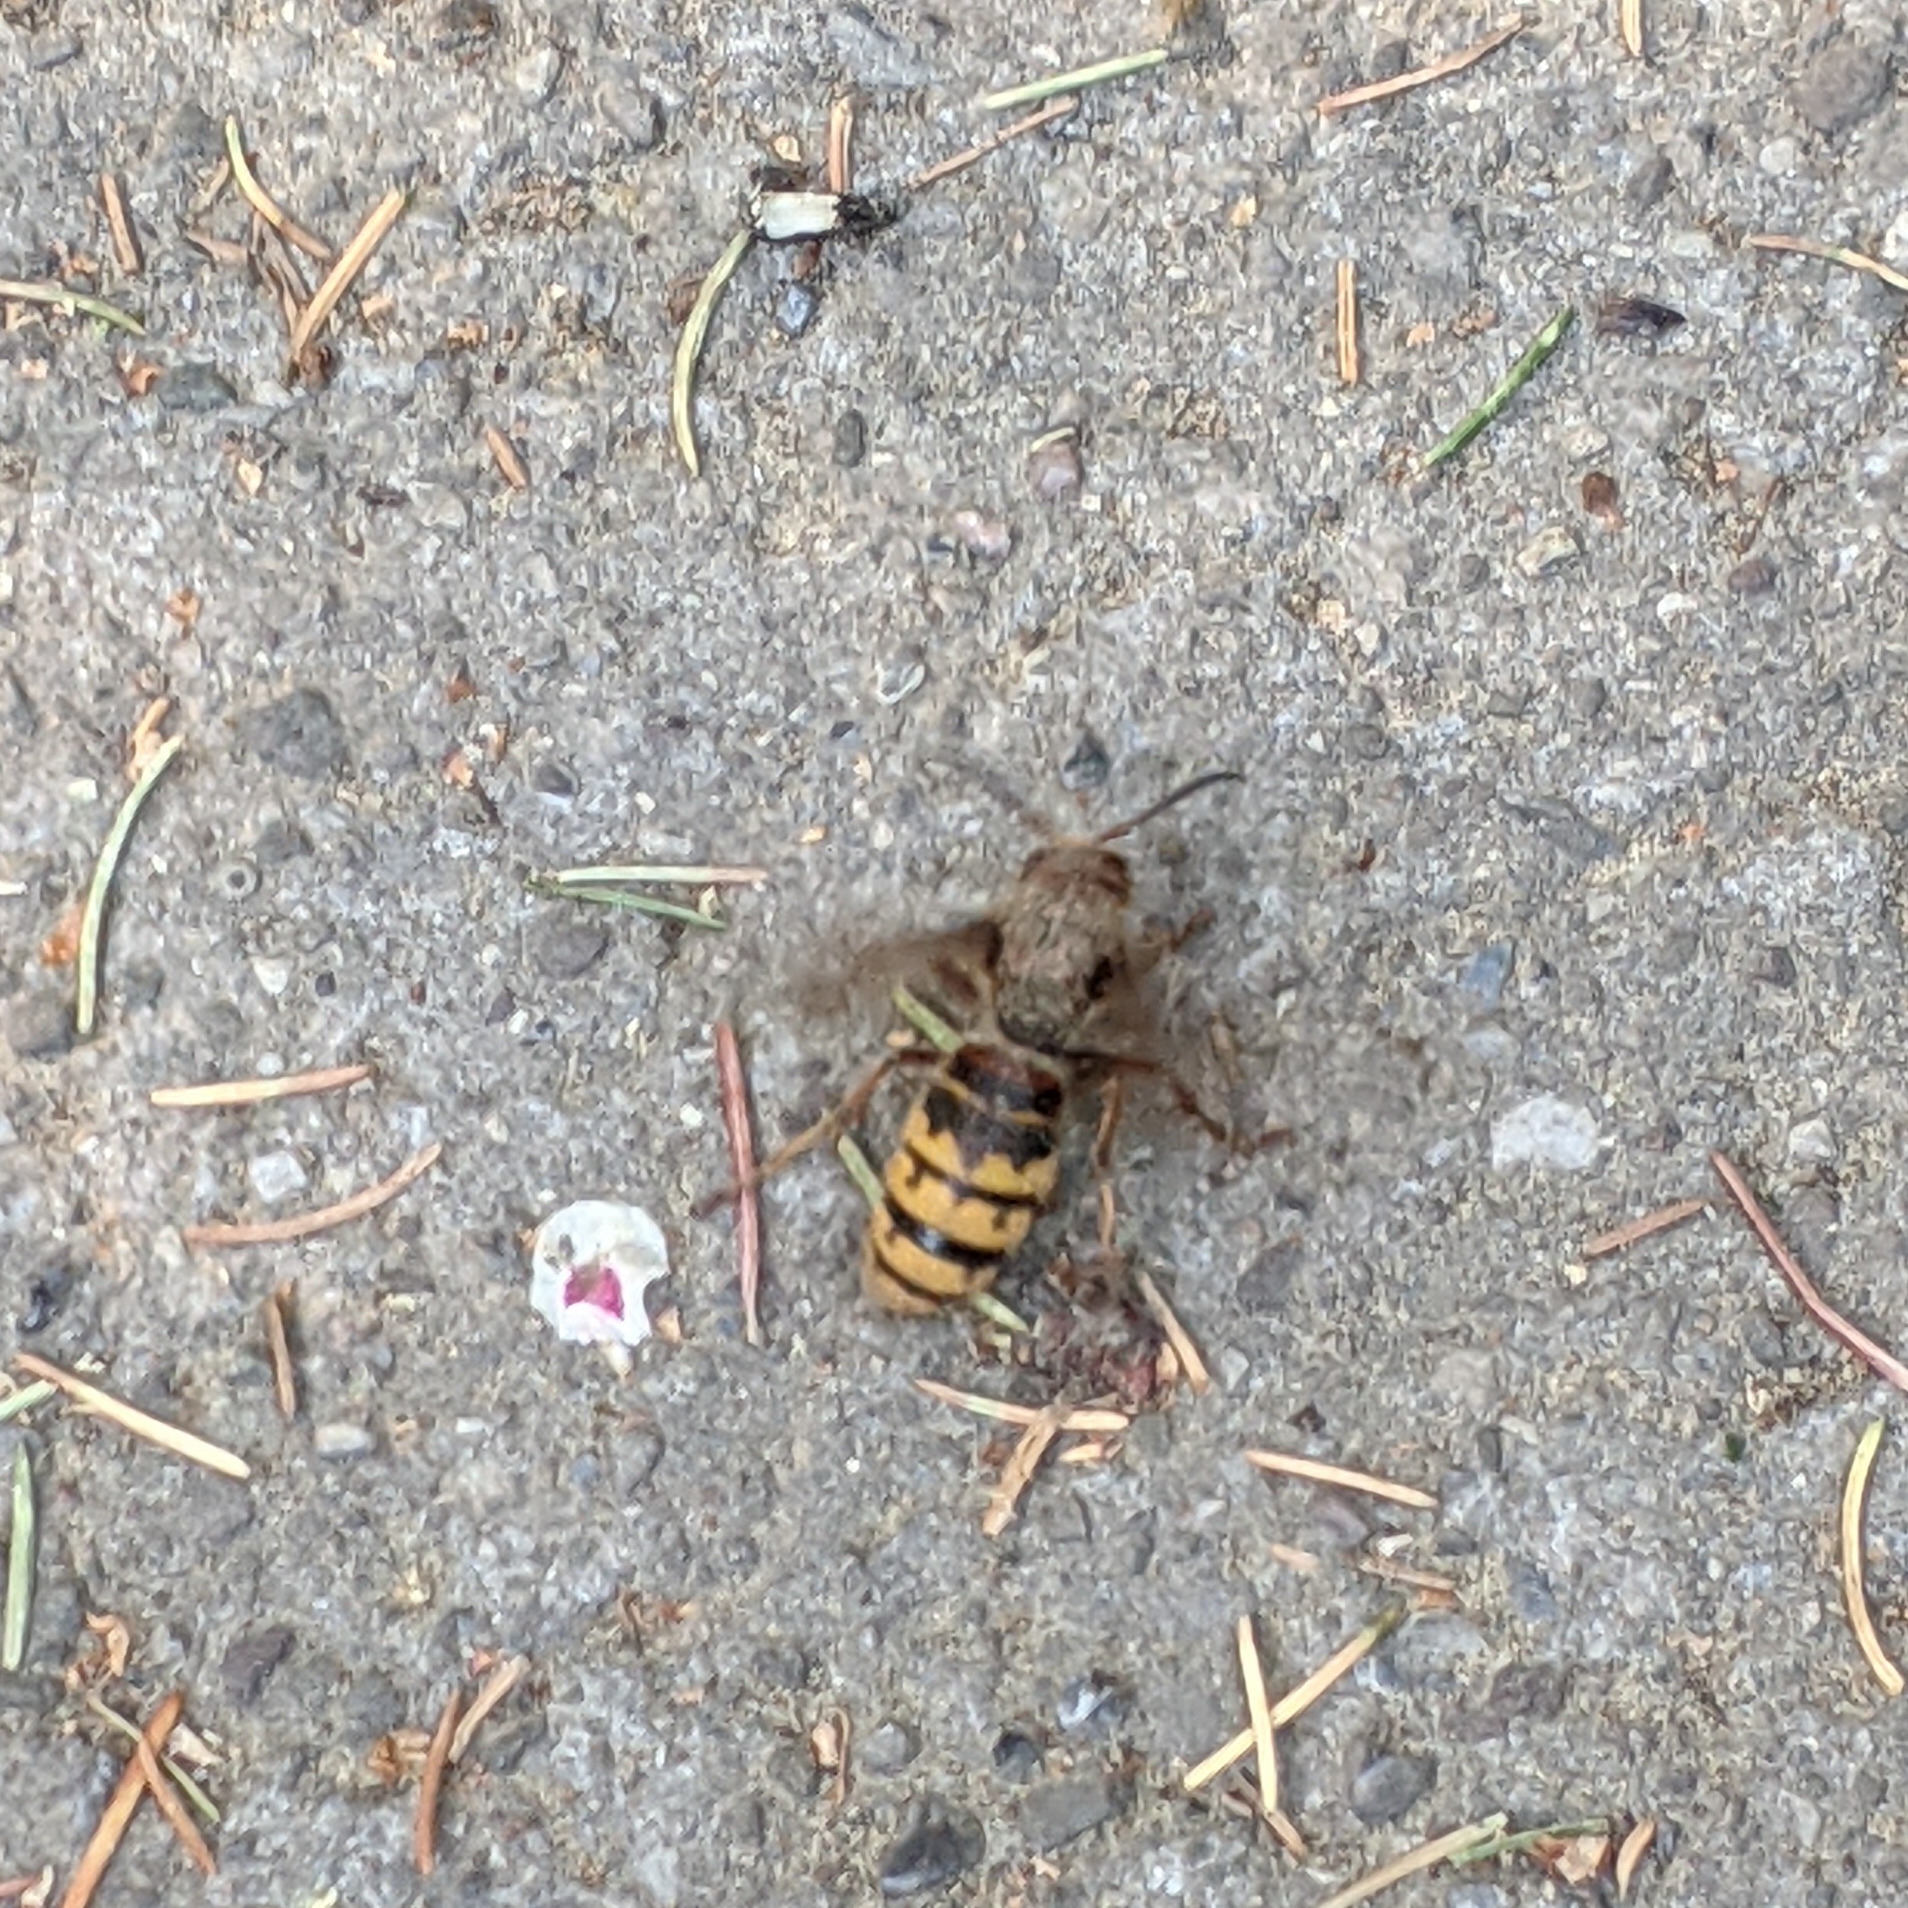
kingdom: Animalia
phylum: Arthropoda
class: Insecta
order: Hymenoptera
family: Vespidae
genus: Vespa
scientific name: Vespa crabro
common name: Hornet
